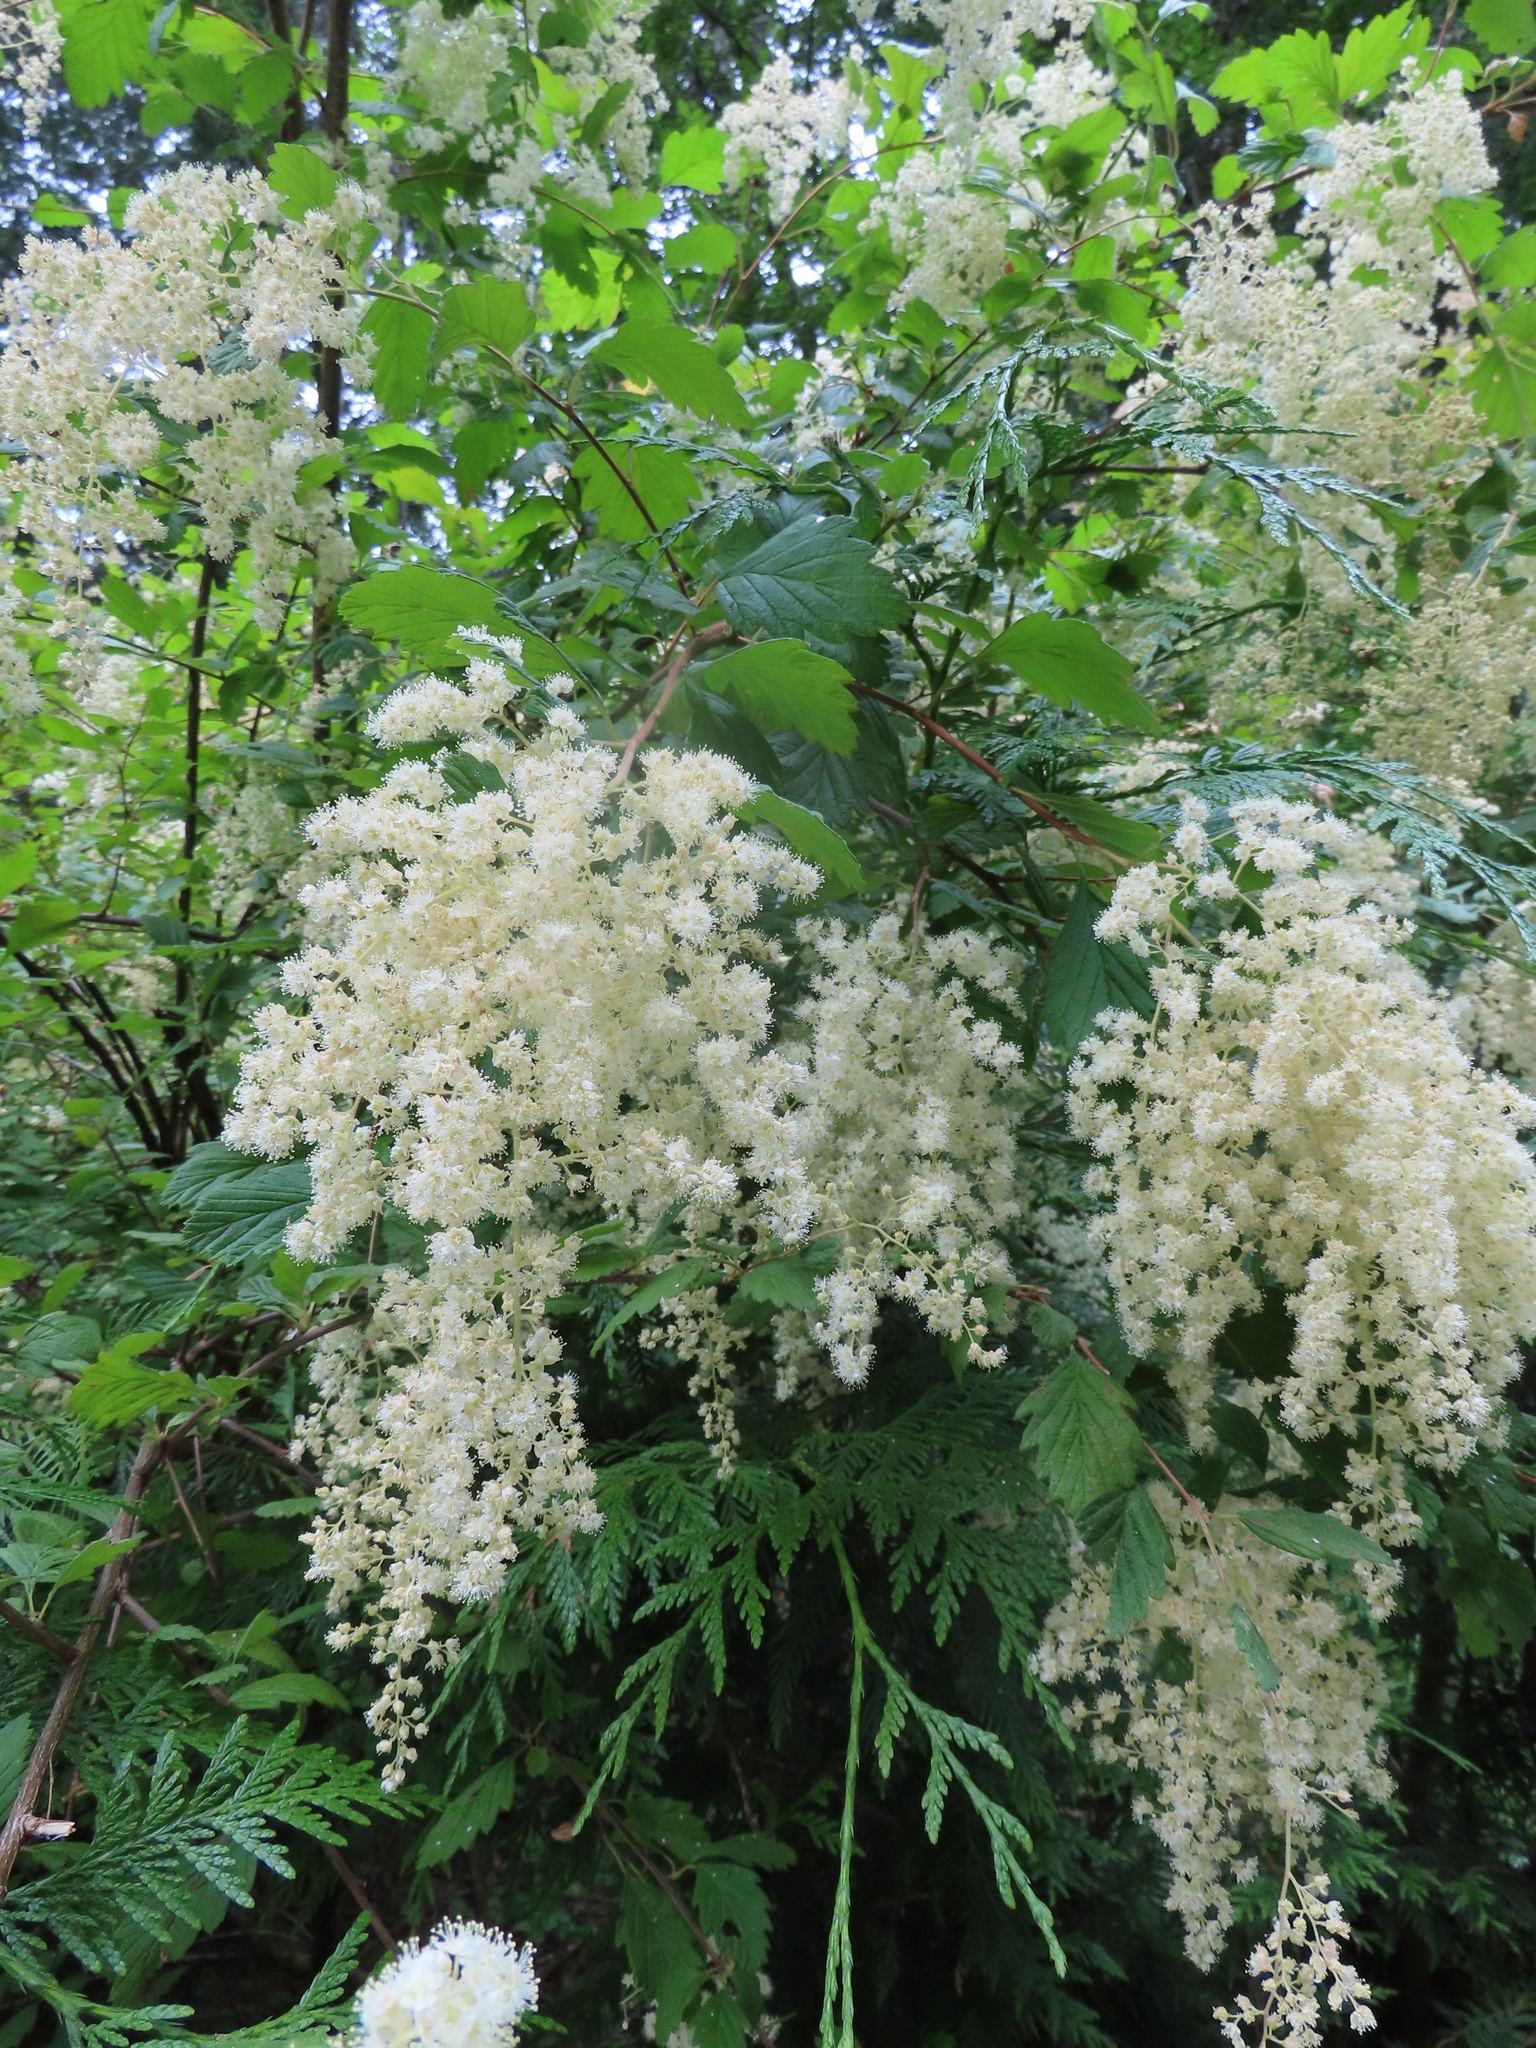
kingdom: Plantae
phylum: Tracheophyta
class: Magnoliopsida
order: Rosales
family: Rosaceae
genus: Holodiscus
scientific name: Holodiscus discolor
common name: Oceanspray
